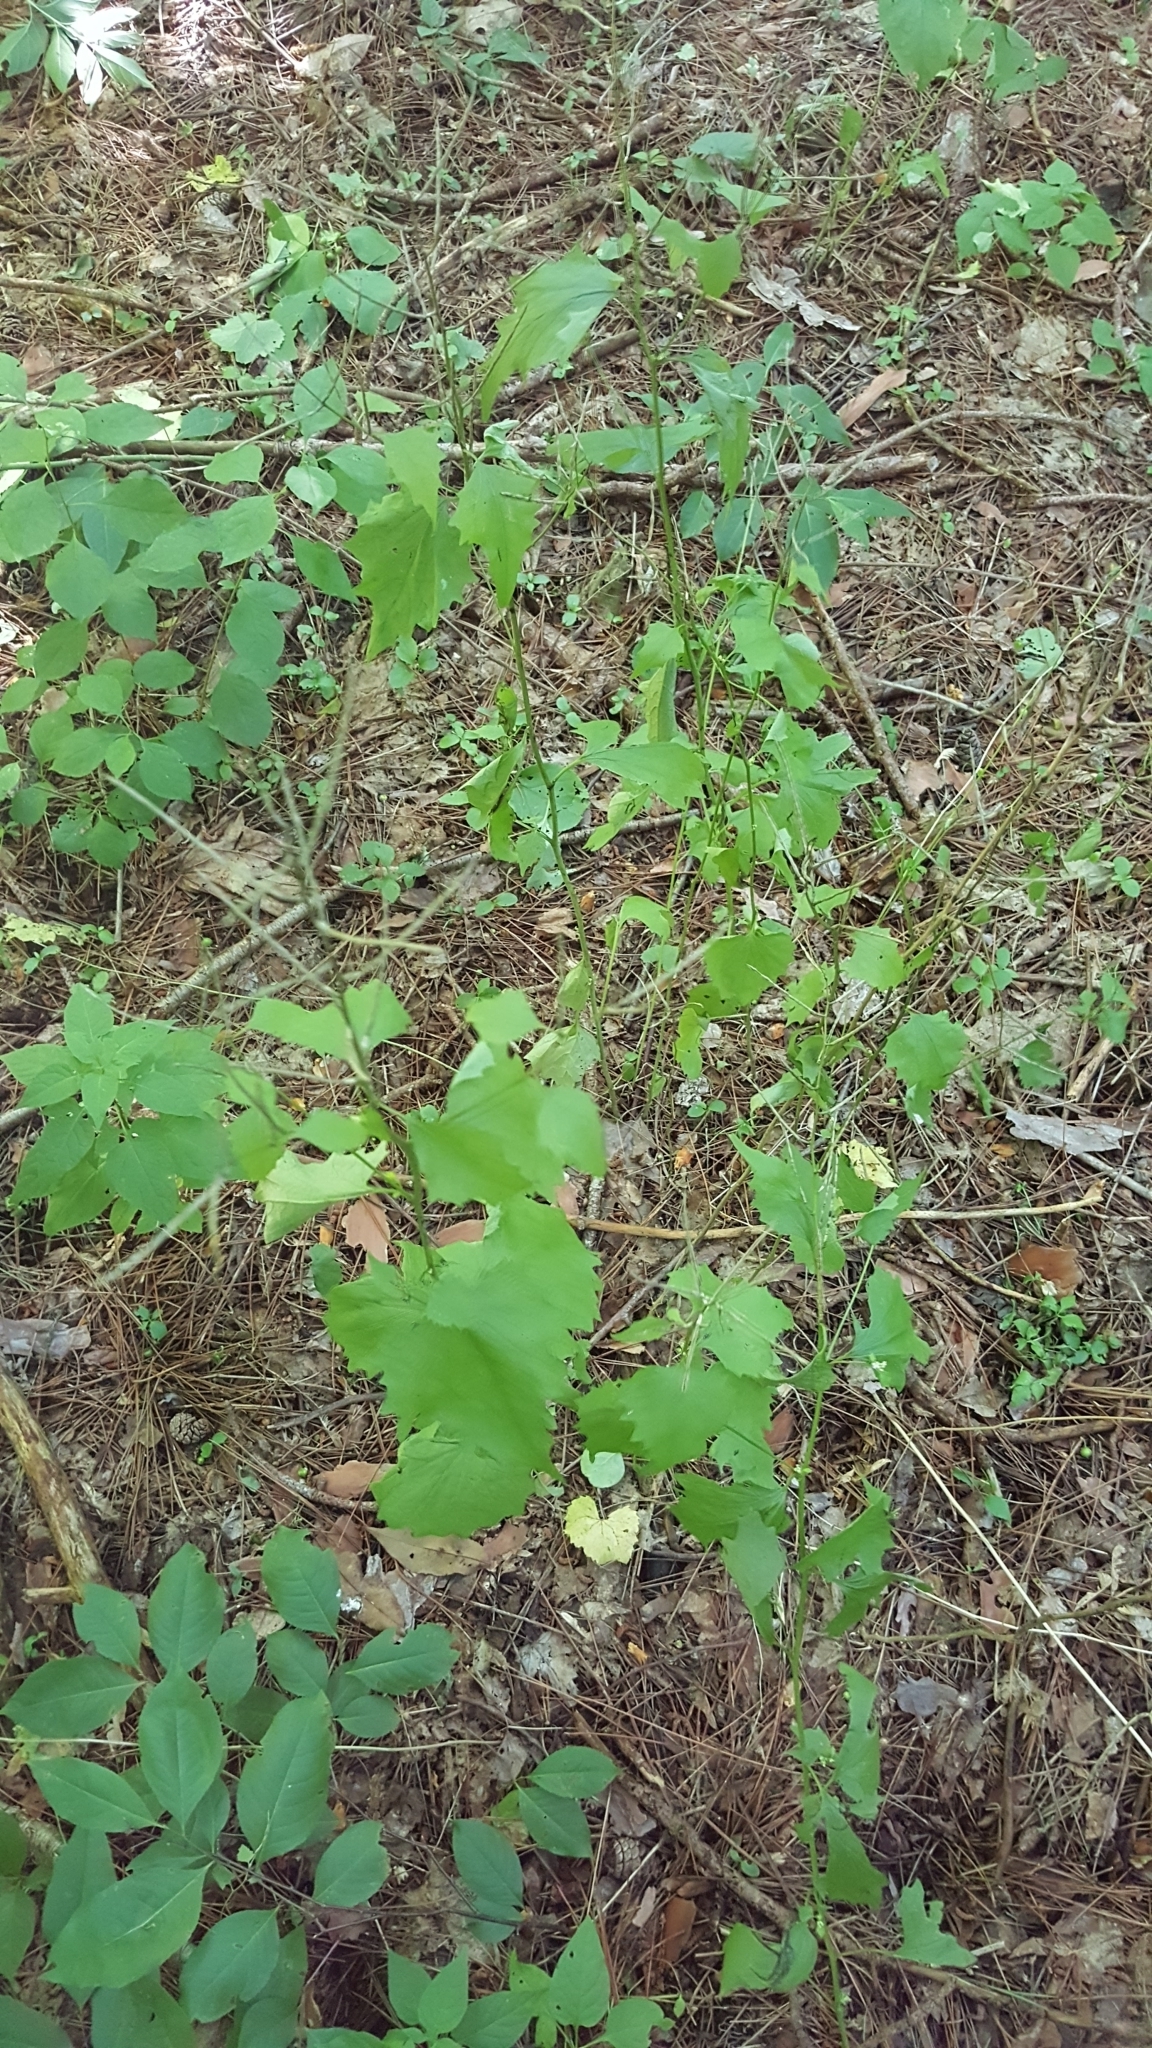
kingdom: Plantae
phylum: Tracheophyta
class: Magnoliopsida
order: Brassicales
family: Brassicaceae
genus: Alliaria
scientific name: Alliaria petiolata
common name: Garlic mustard
